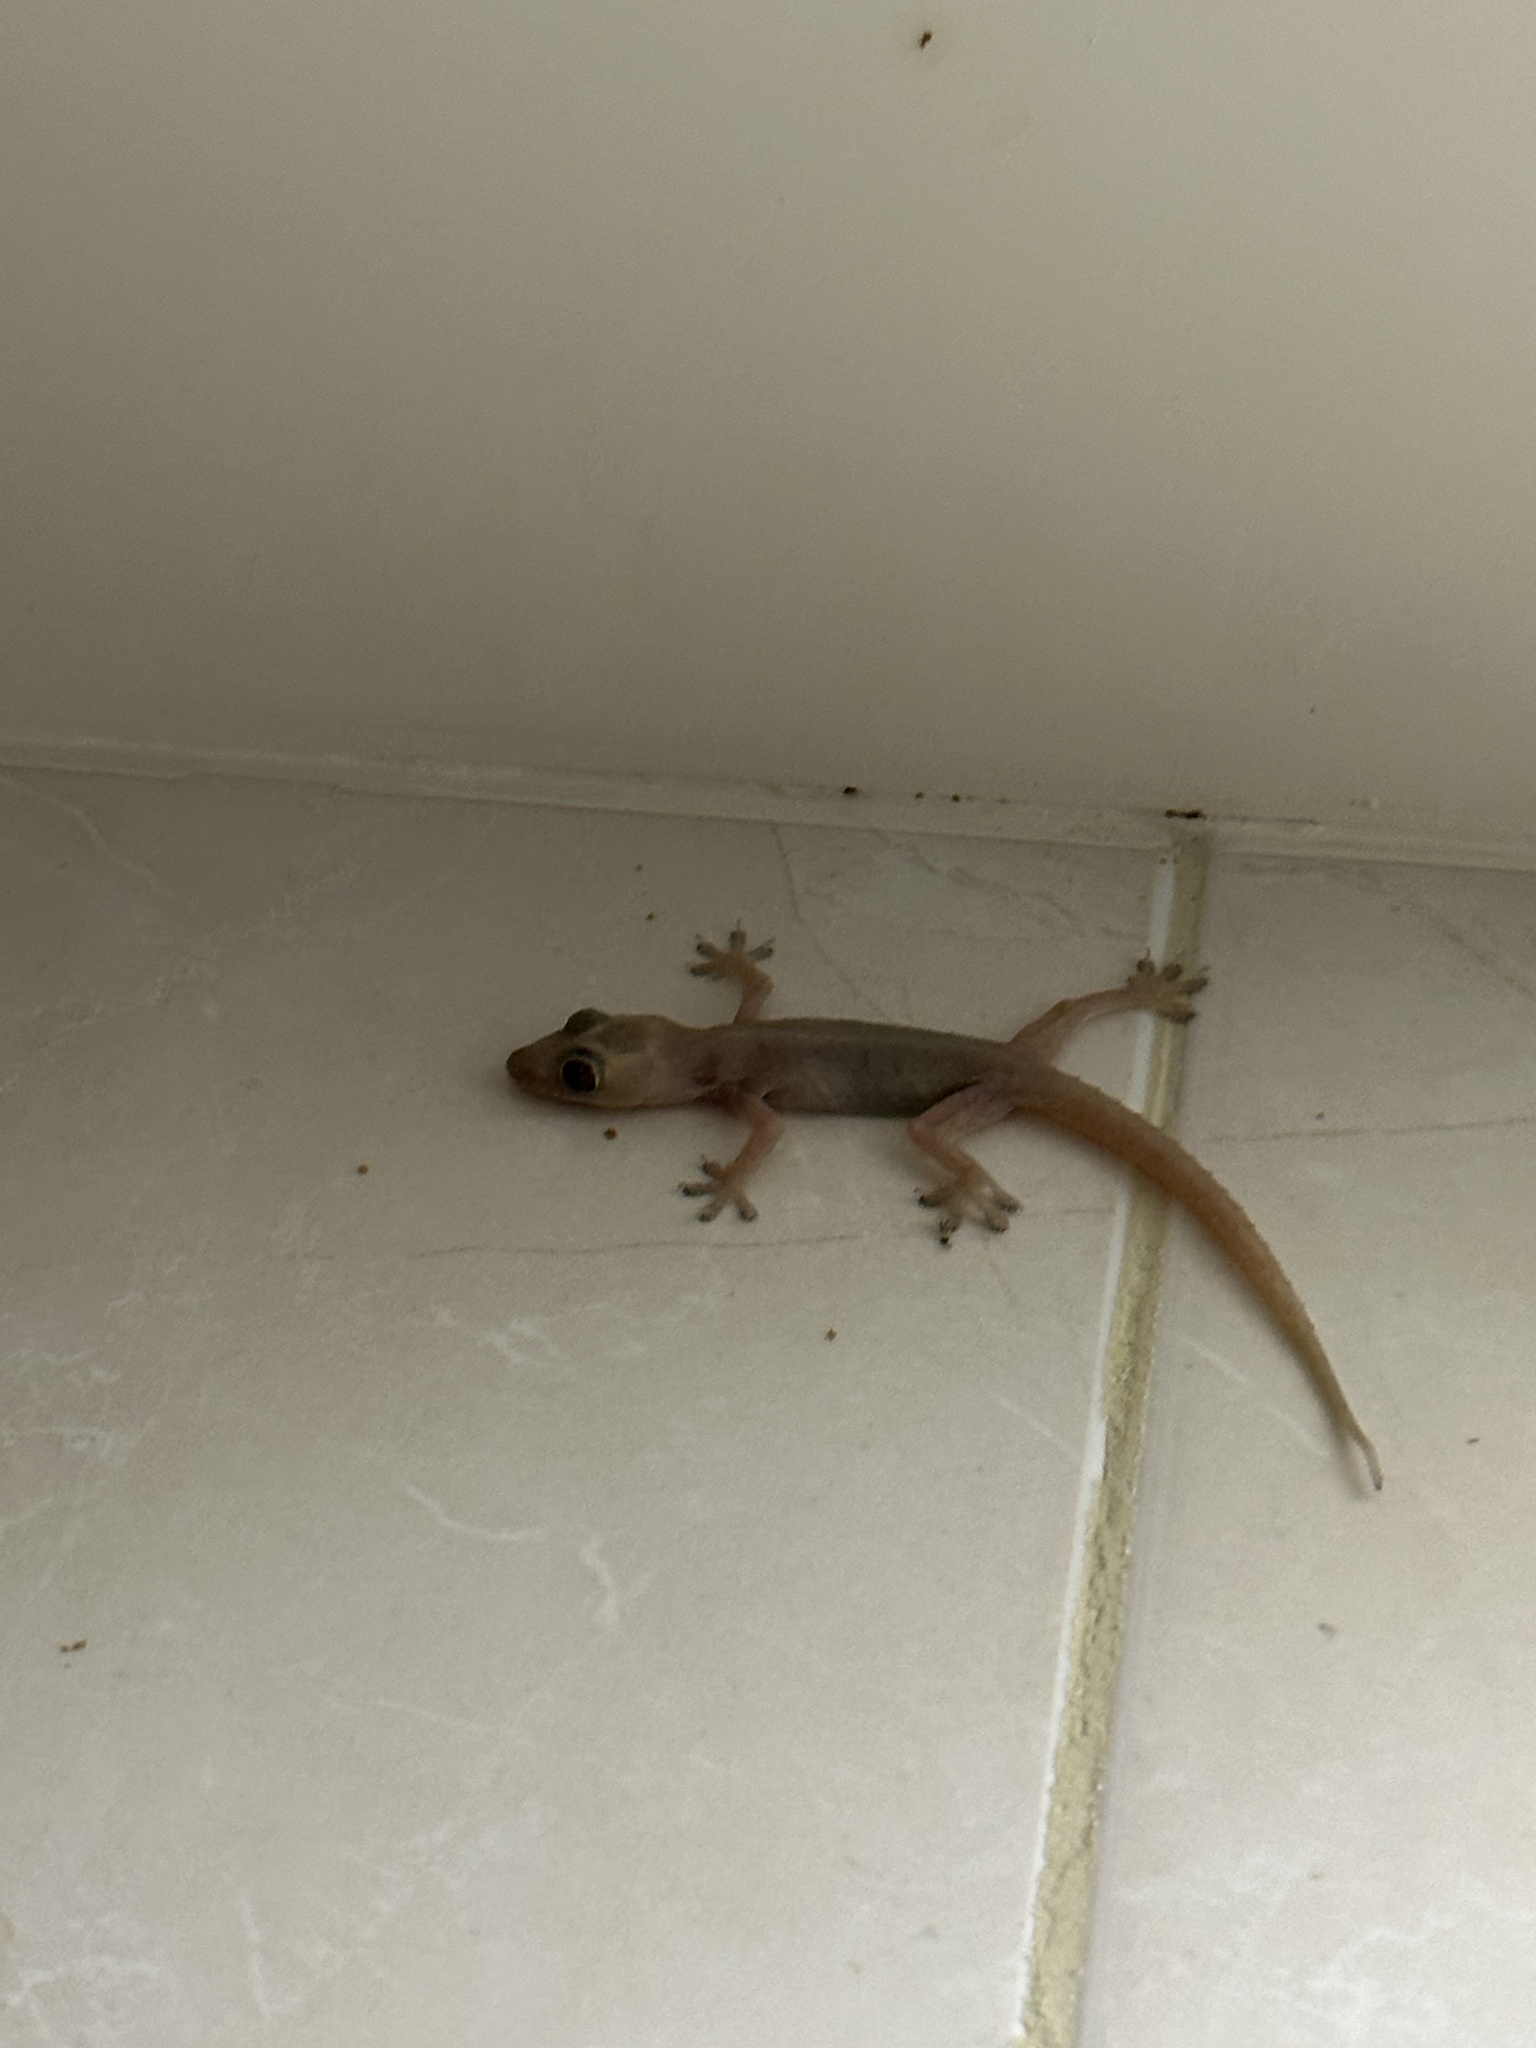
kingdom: Animalia
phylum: Chordata
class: Squamata
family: Gekkonidae
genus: Hemidactylus
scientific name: Hemidactylus frenatus
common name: Common house gecko
